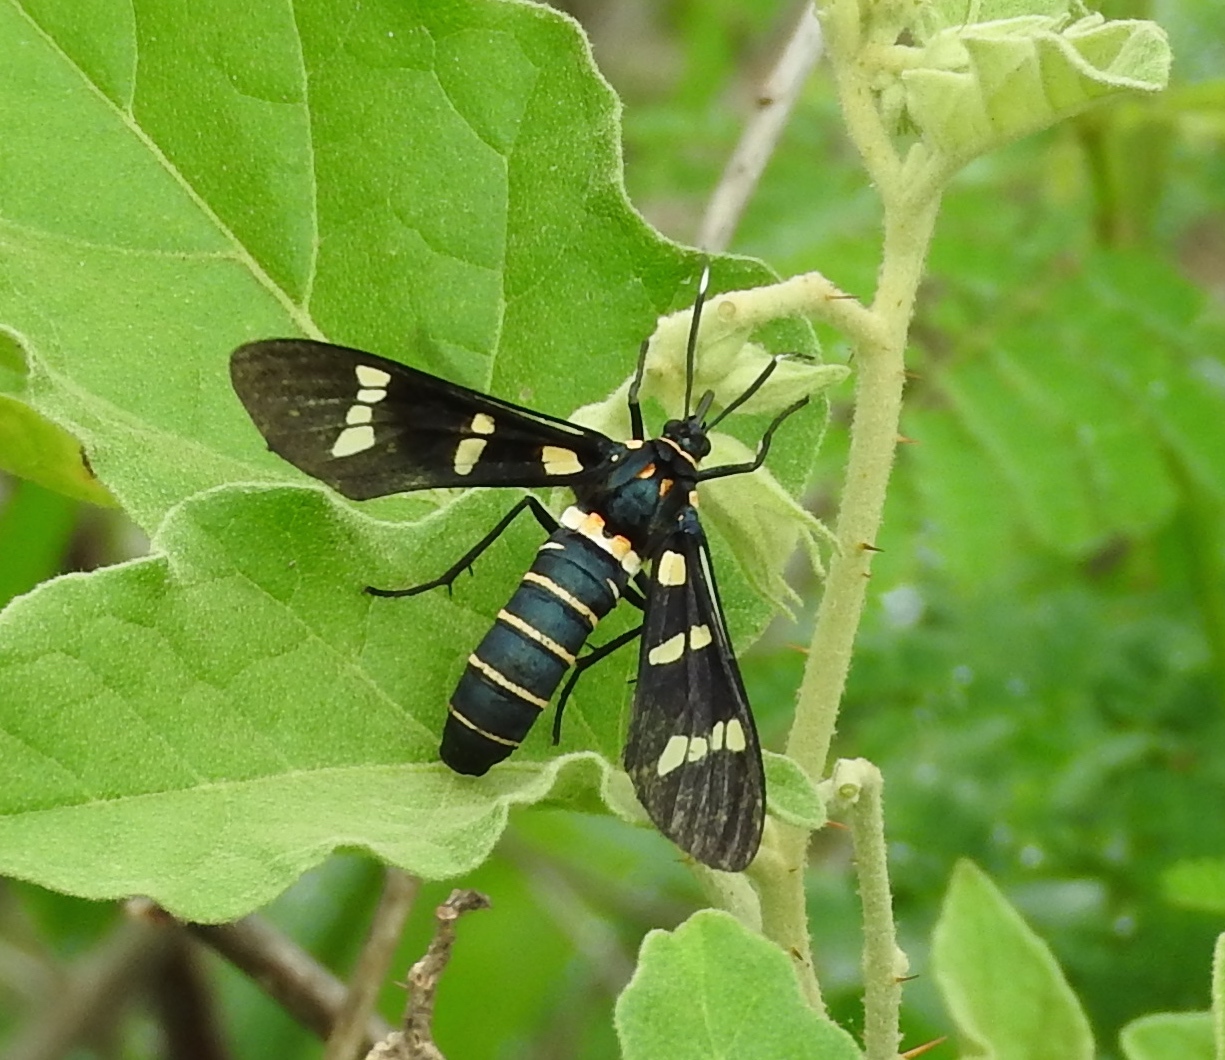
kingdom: Animalia
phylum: Arthropoda
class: Insecta
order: Lepidoptera
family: Erebidae
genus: Syntomeida
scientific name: Syntomeida melanthus
